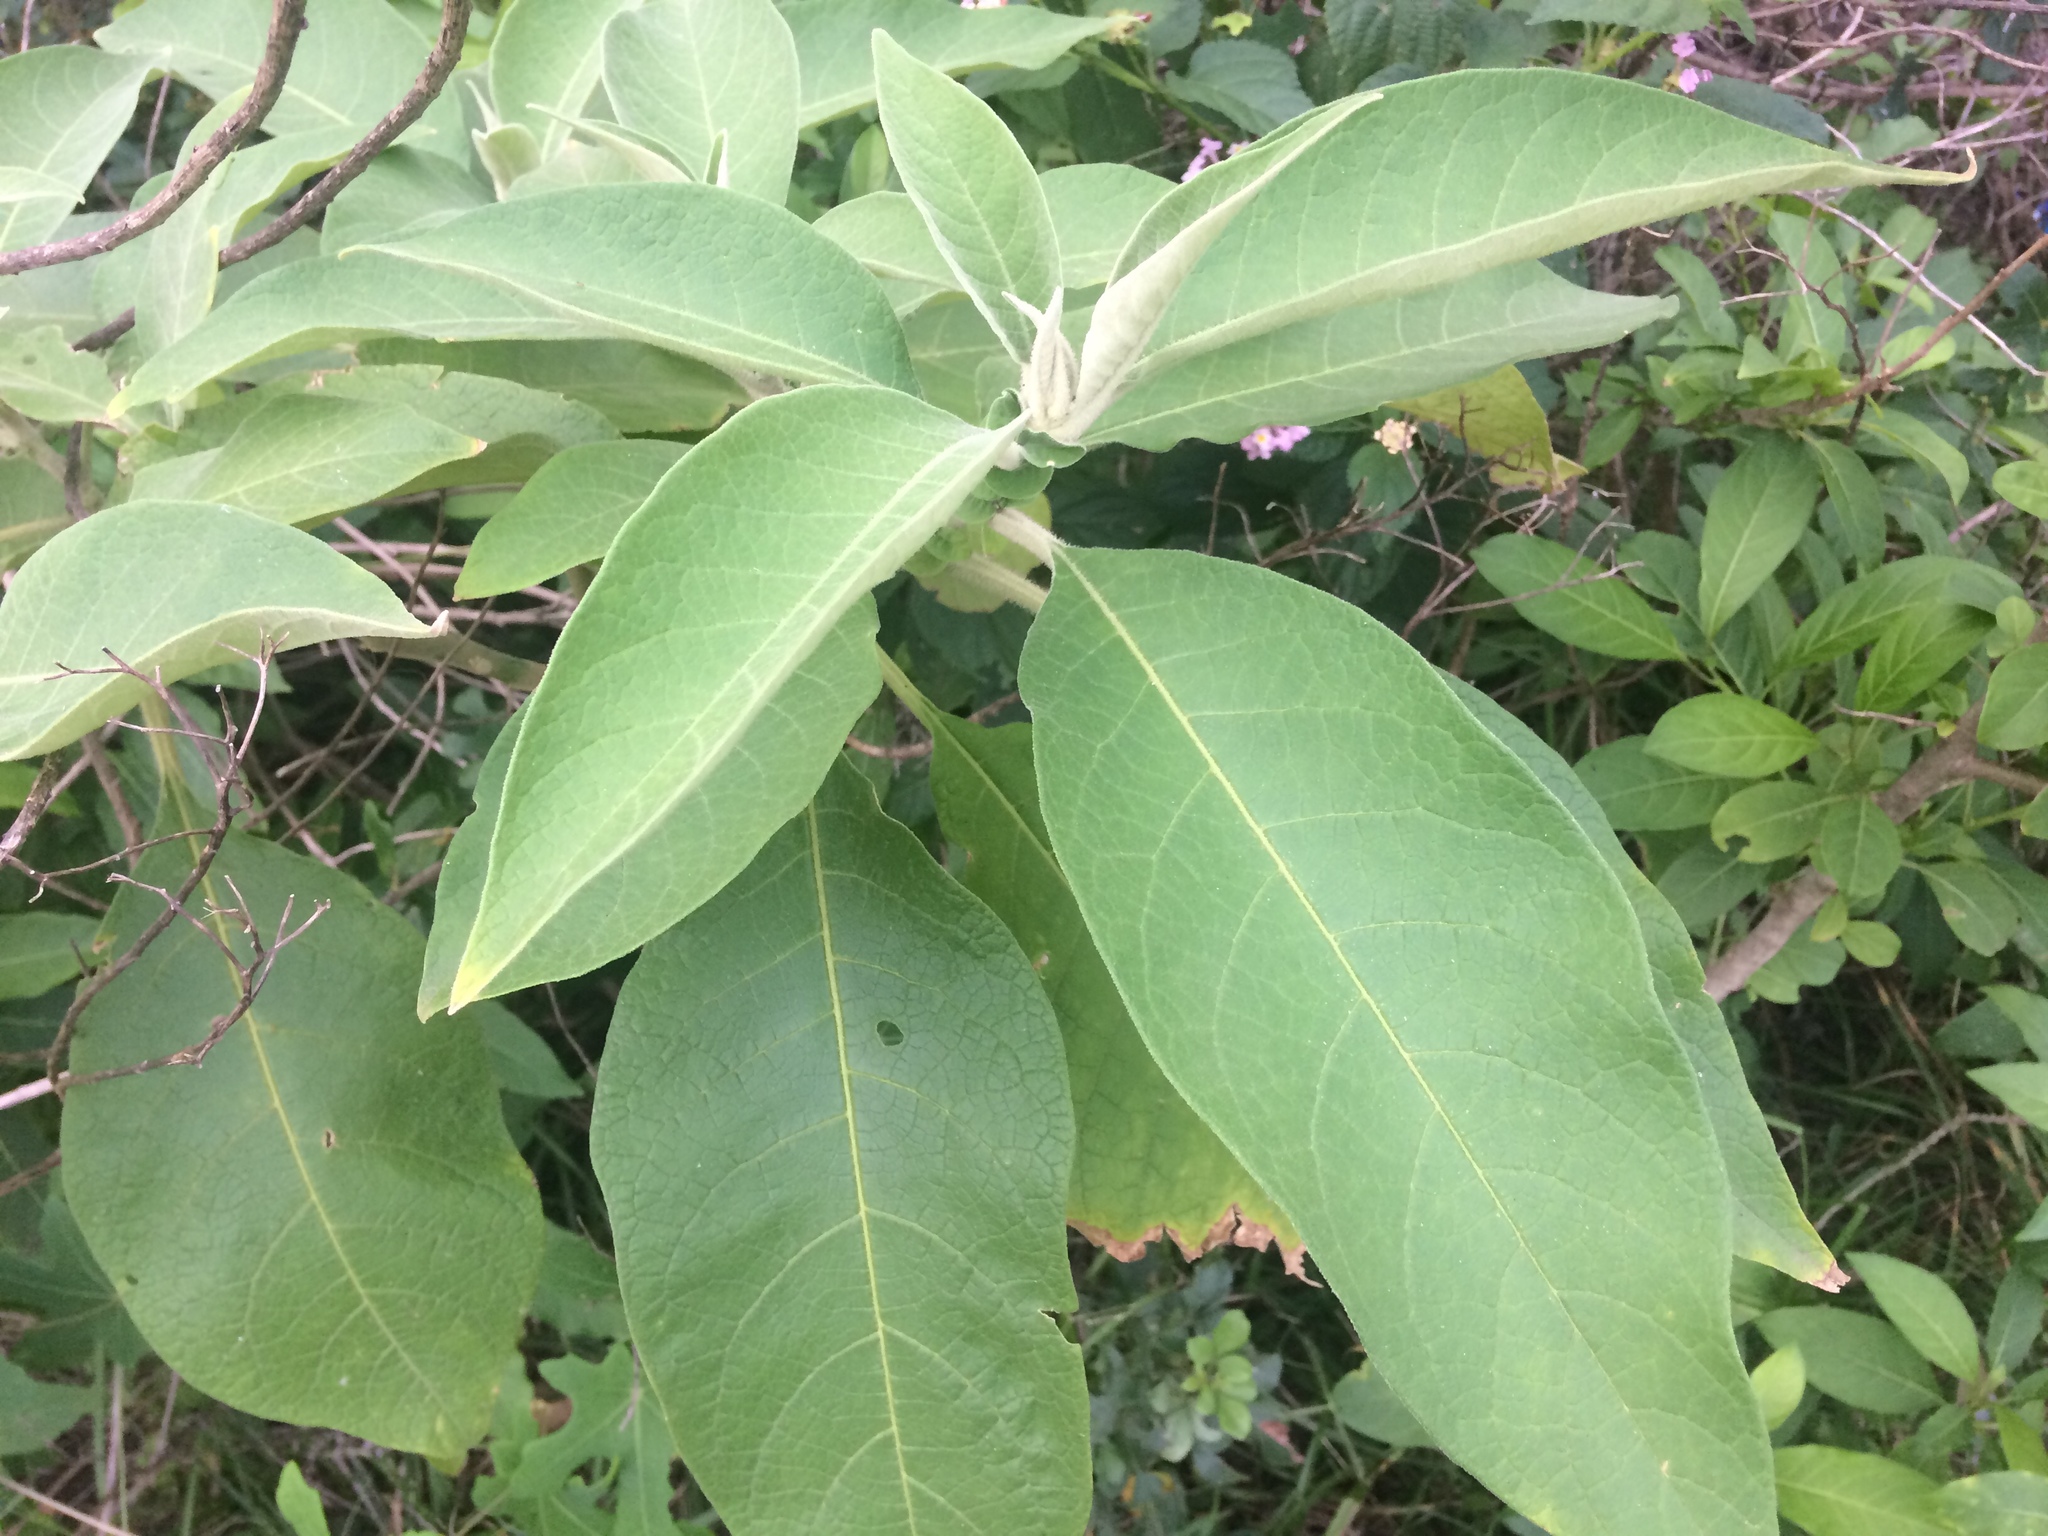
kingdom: Plantae
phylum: Tracheophyta
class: Magnoliopsida
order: Solanales
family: Solanaceae
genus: Solanum
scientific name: Solanum mauritianum
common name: Earleaf nightshade
